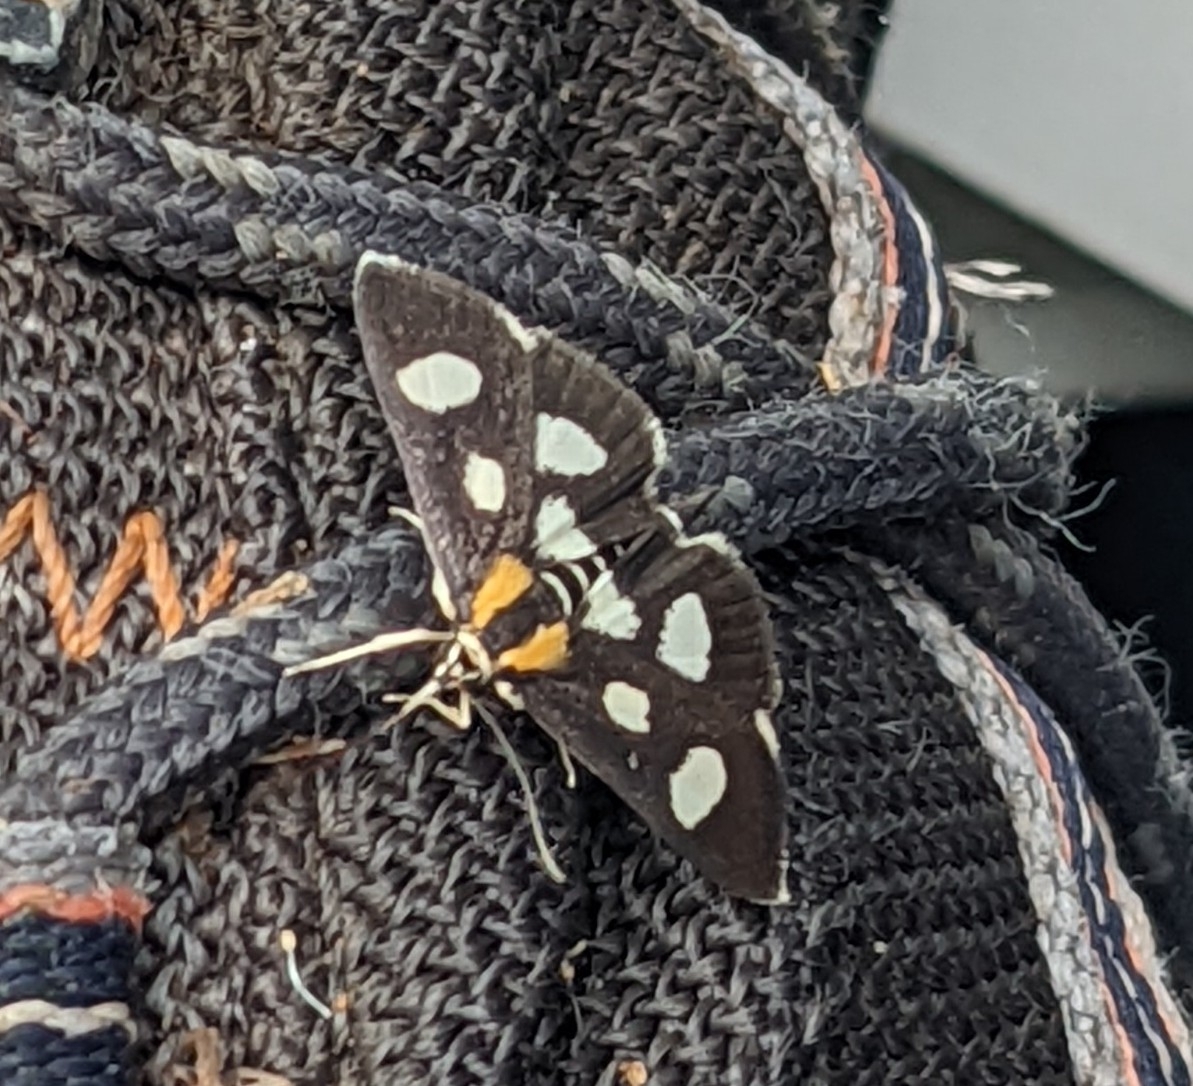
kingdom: Animalia
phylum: Arthropoda
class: Insecta
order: Lepidoptera
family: Crambidae
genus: Anania
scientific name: Anania funebris
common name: White-spotted sable moth
